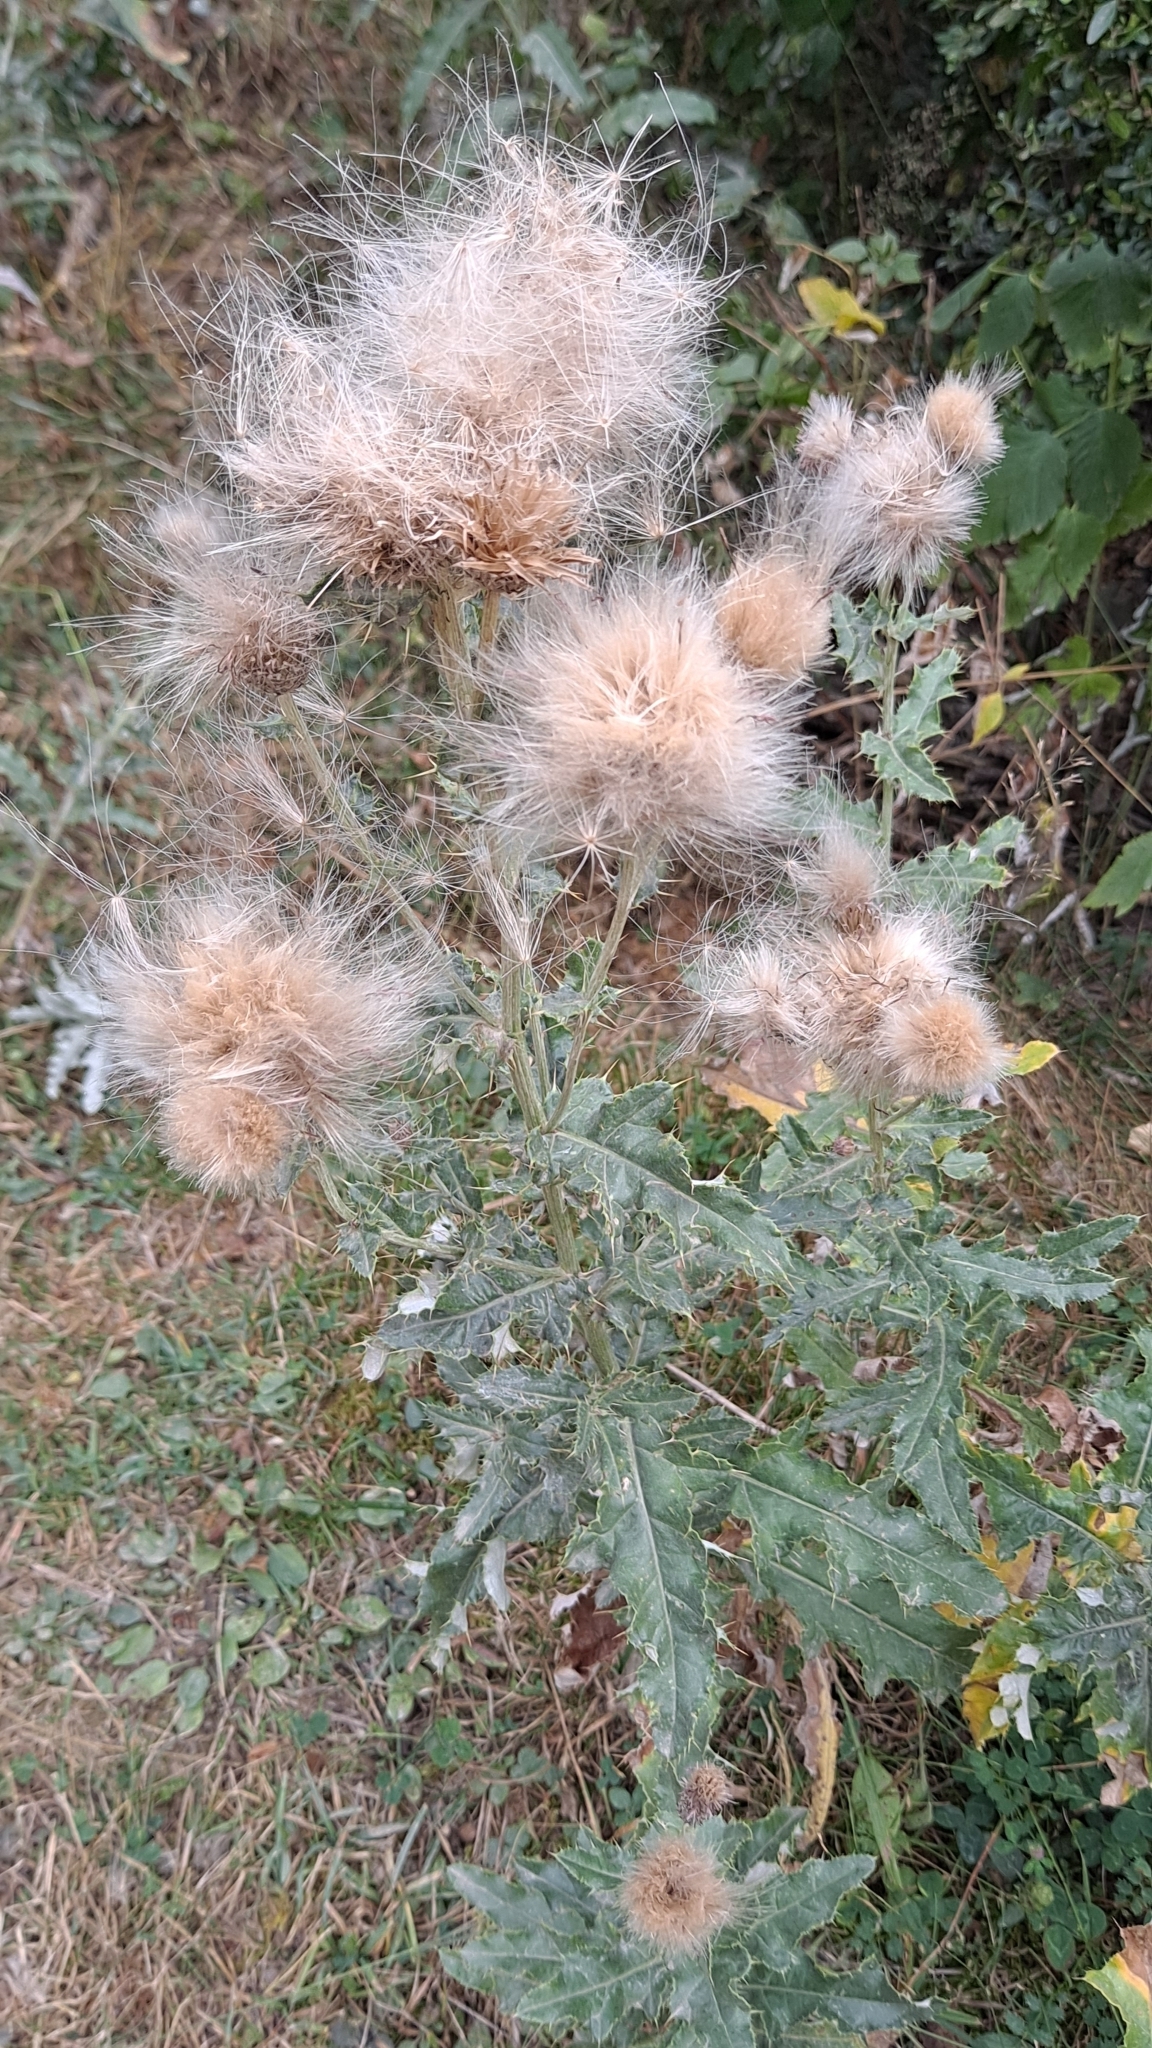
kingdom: Plantae
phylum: Tracheophyta
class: Magnoliopsida
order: Asterales
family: Asteraceae
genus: Cirsium
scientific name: Cirsium arvense
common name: Creeping thistle
